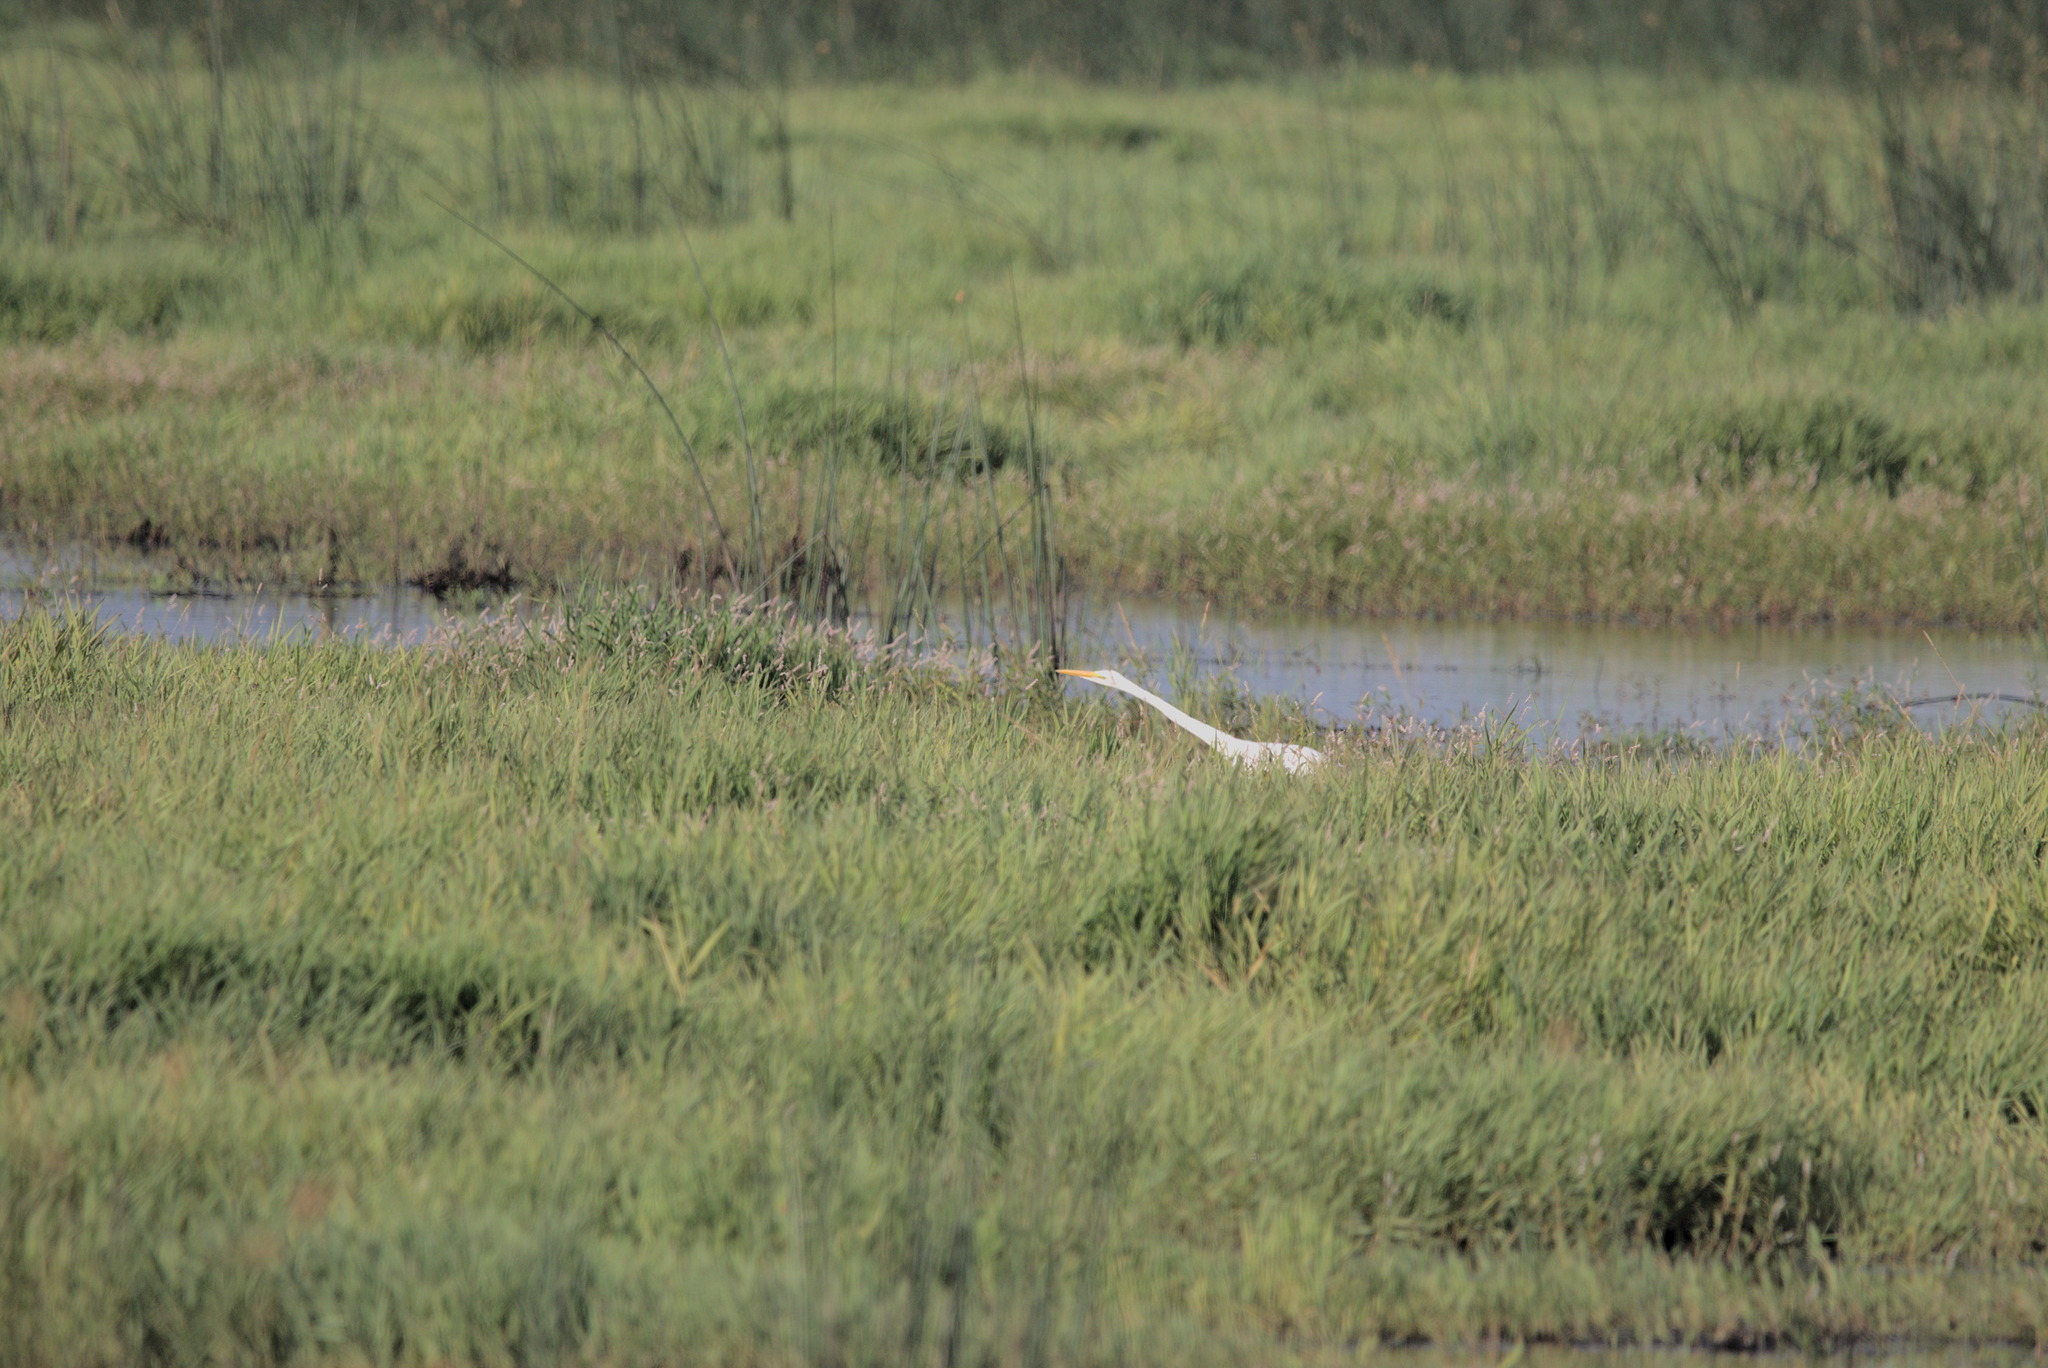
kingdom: Animalia
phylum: Chordata
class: Aves
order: Pelecaniformes
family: Ardeidae
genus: Ardea
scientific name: Ardea alba
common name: Great egret
